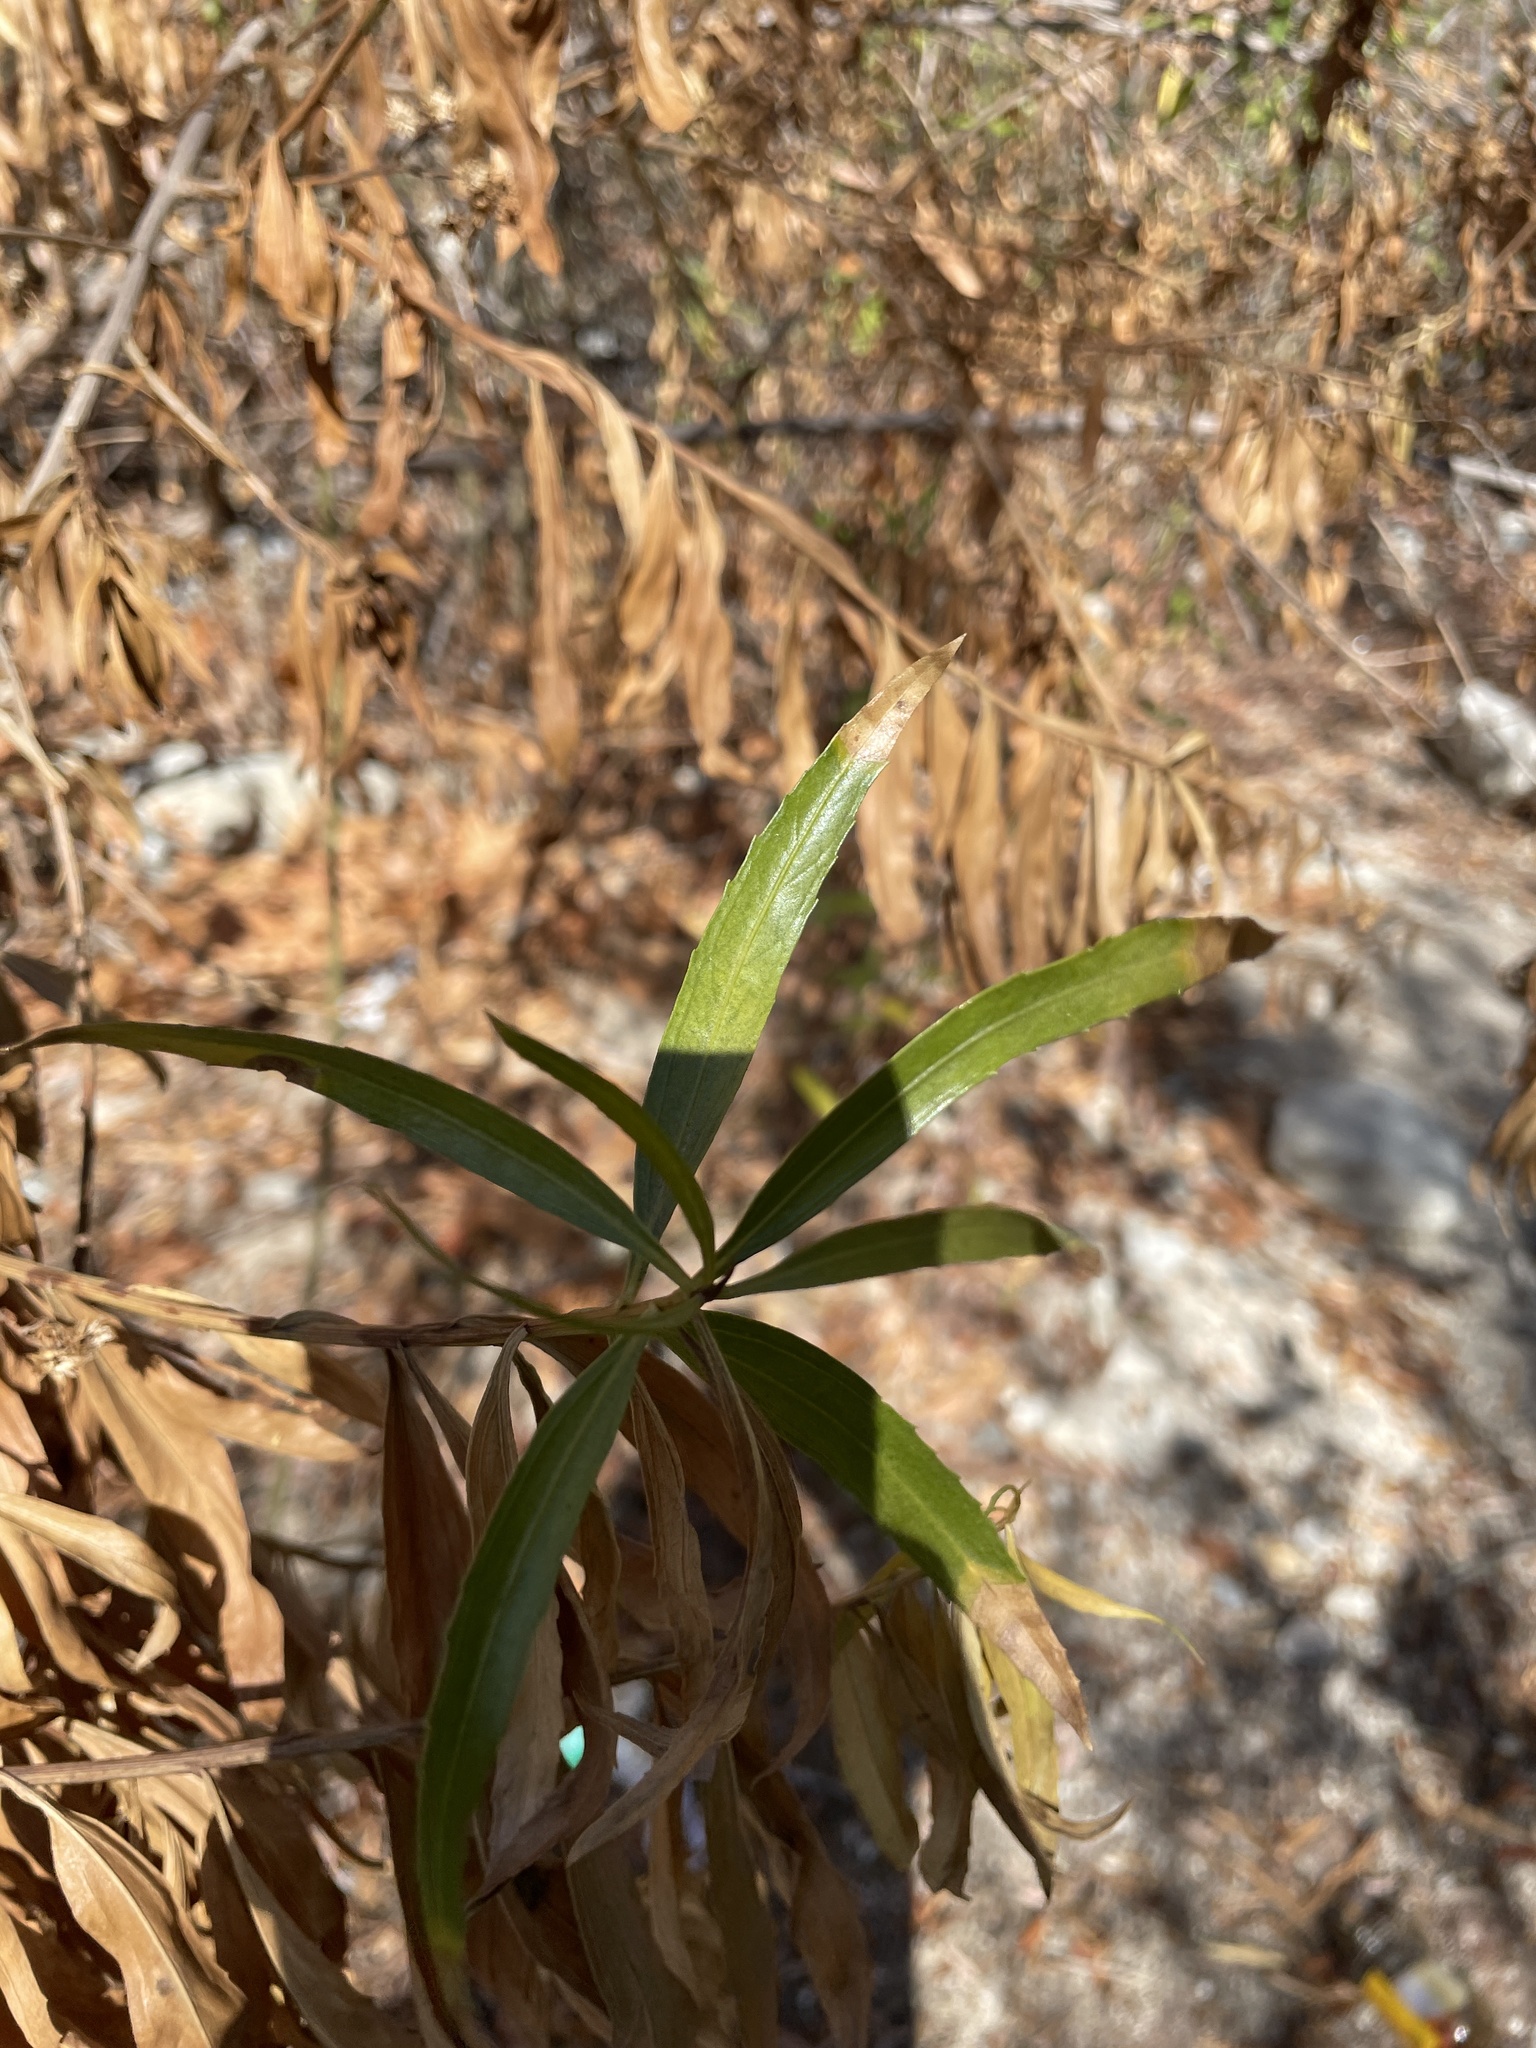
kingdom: Plantae
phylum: Tracheophyta
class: Magnoliopsida
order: Asterales
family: Asteraceae
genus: Baccharis
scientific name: Baccharis salicifolia
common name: Sticky baccharis
